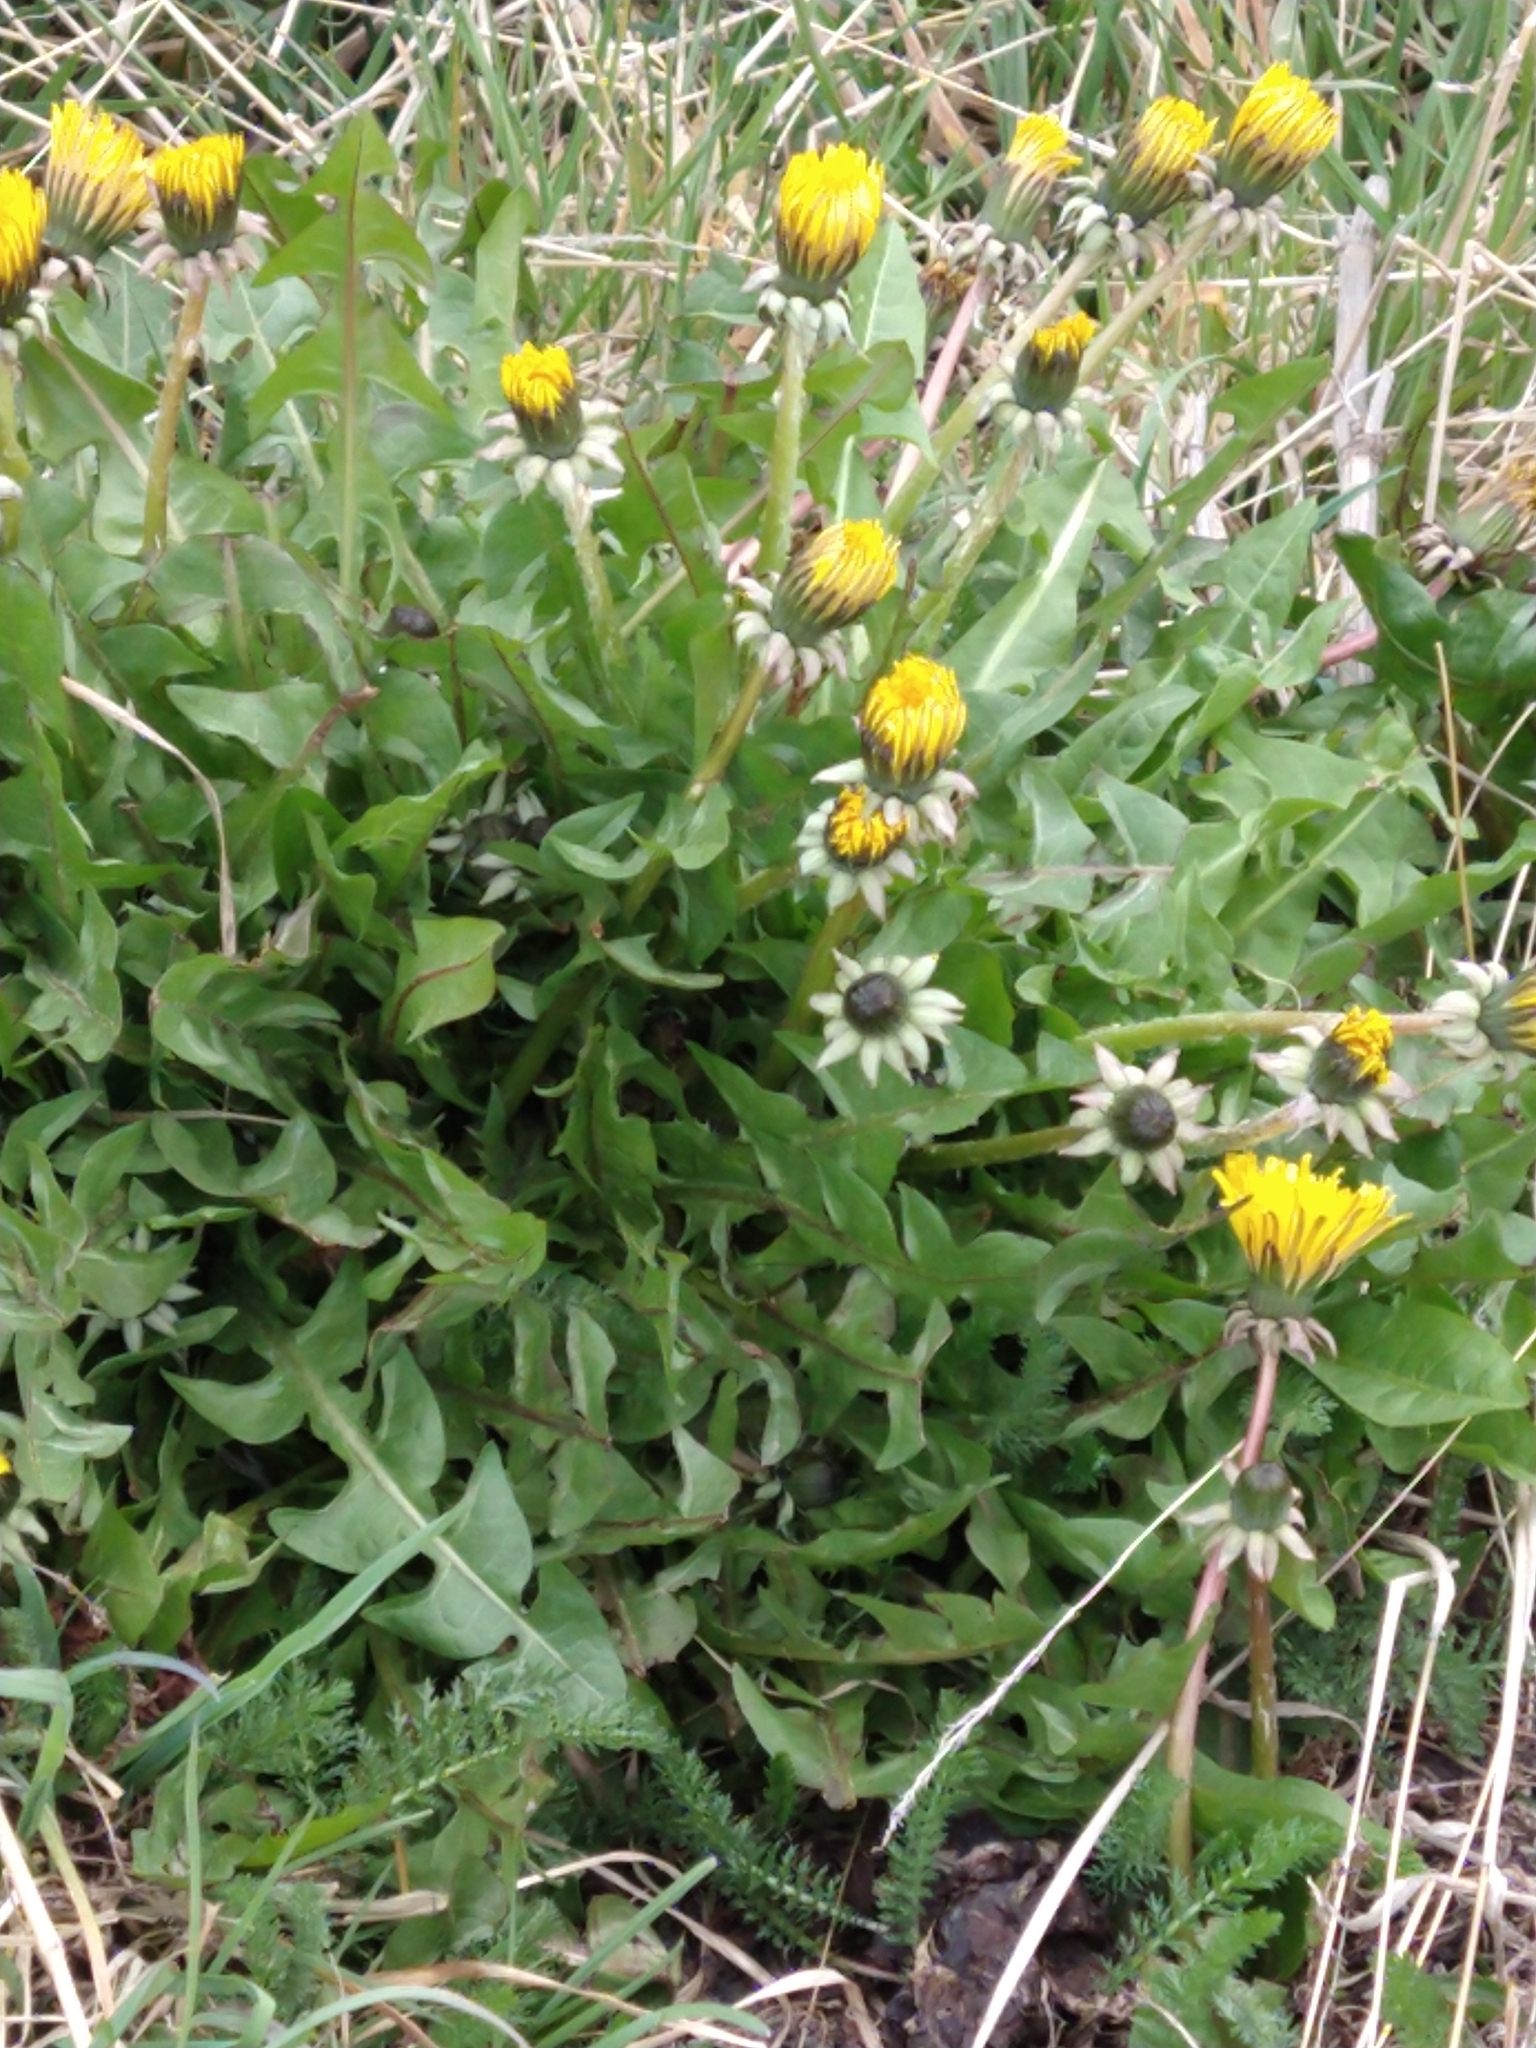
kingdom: Plantae
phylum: Tracheophyta
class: Magnoliopsida
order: Asterales
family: Asteraceae
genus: Taraxacum
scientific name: Taraxacum officinale
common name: Common dandelion
